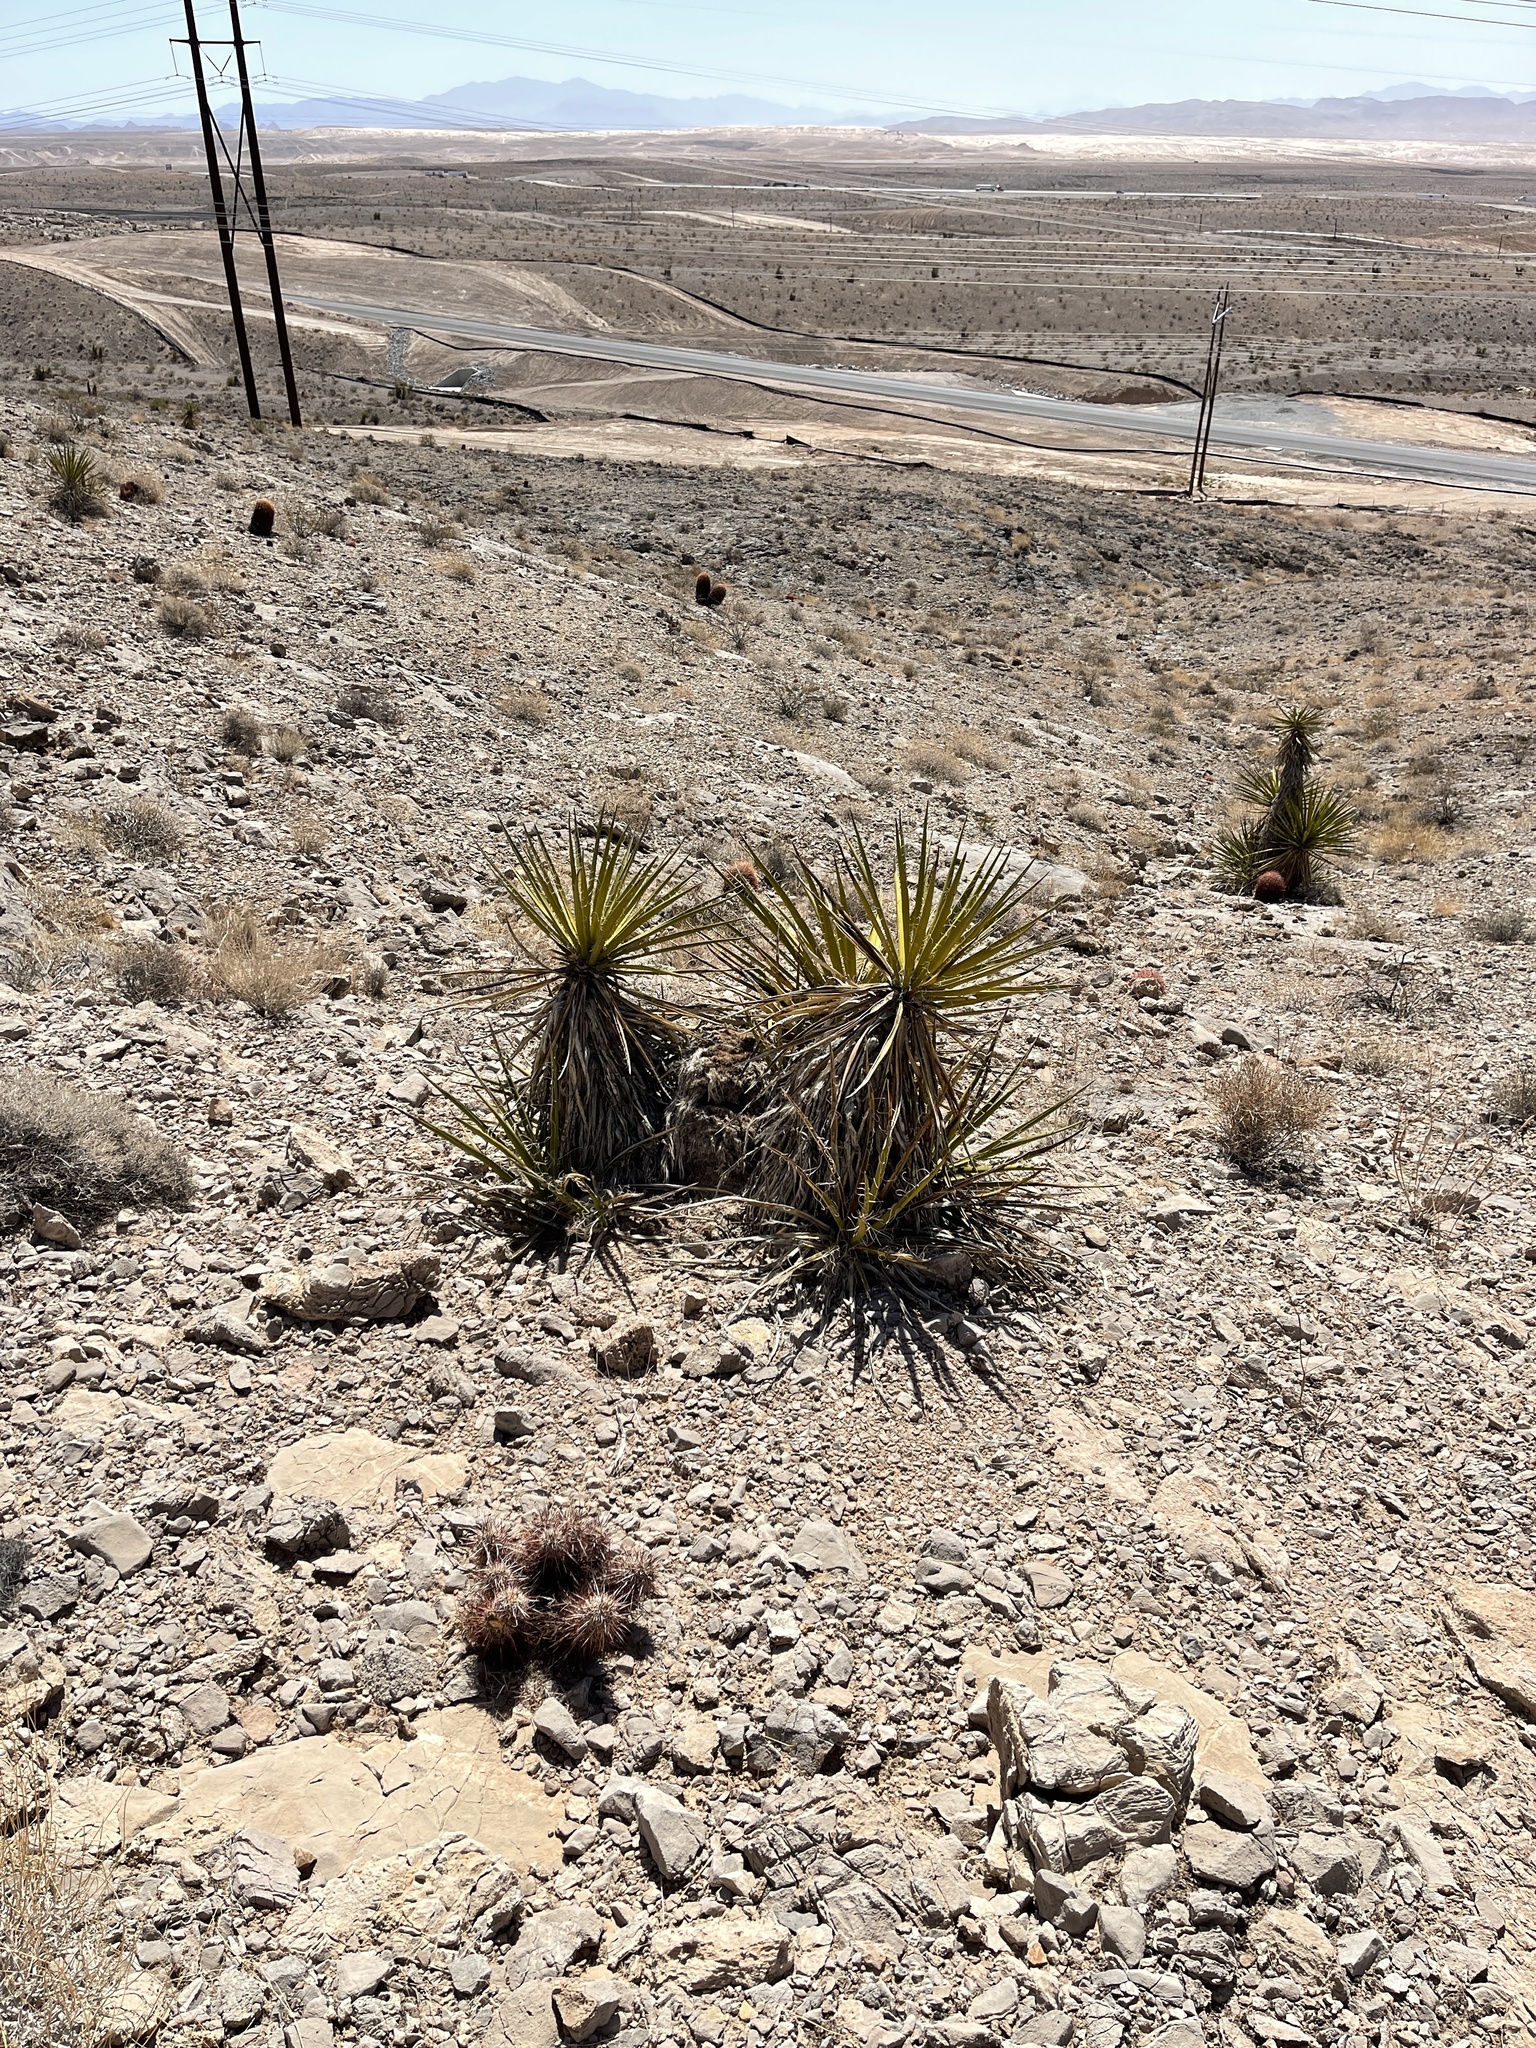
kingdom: Plantae
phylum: Tracheophyta
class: Liliopsida
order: Asparagales
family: Asparagaceae
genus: Yucca
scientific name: Yucca schidigera
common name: Mojave yucca
